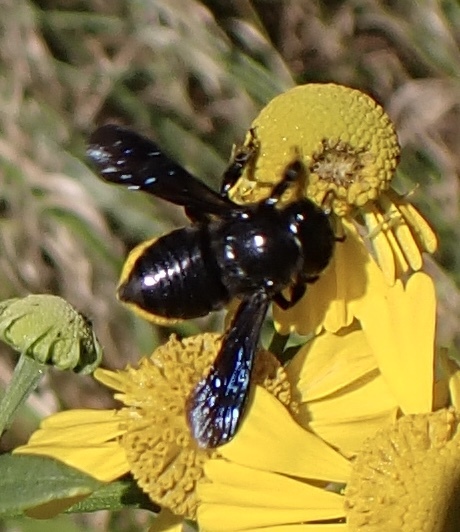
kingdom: Animalia
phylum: Arthropoda
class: Insecta
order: Hymenoptera
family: Megachilidae
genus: Megachile
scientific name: Megachile xylocopoides
